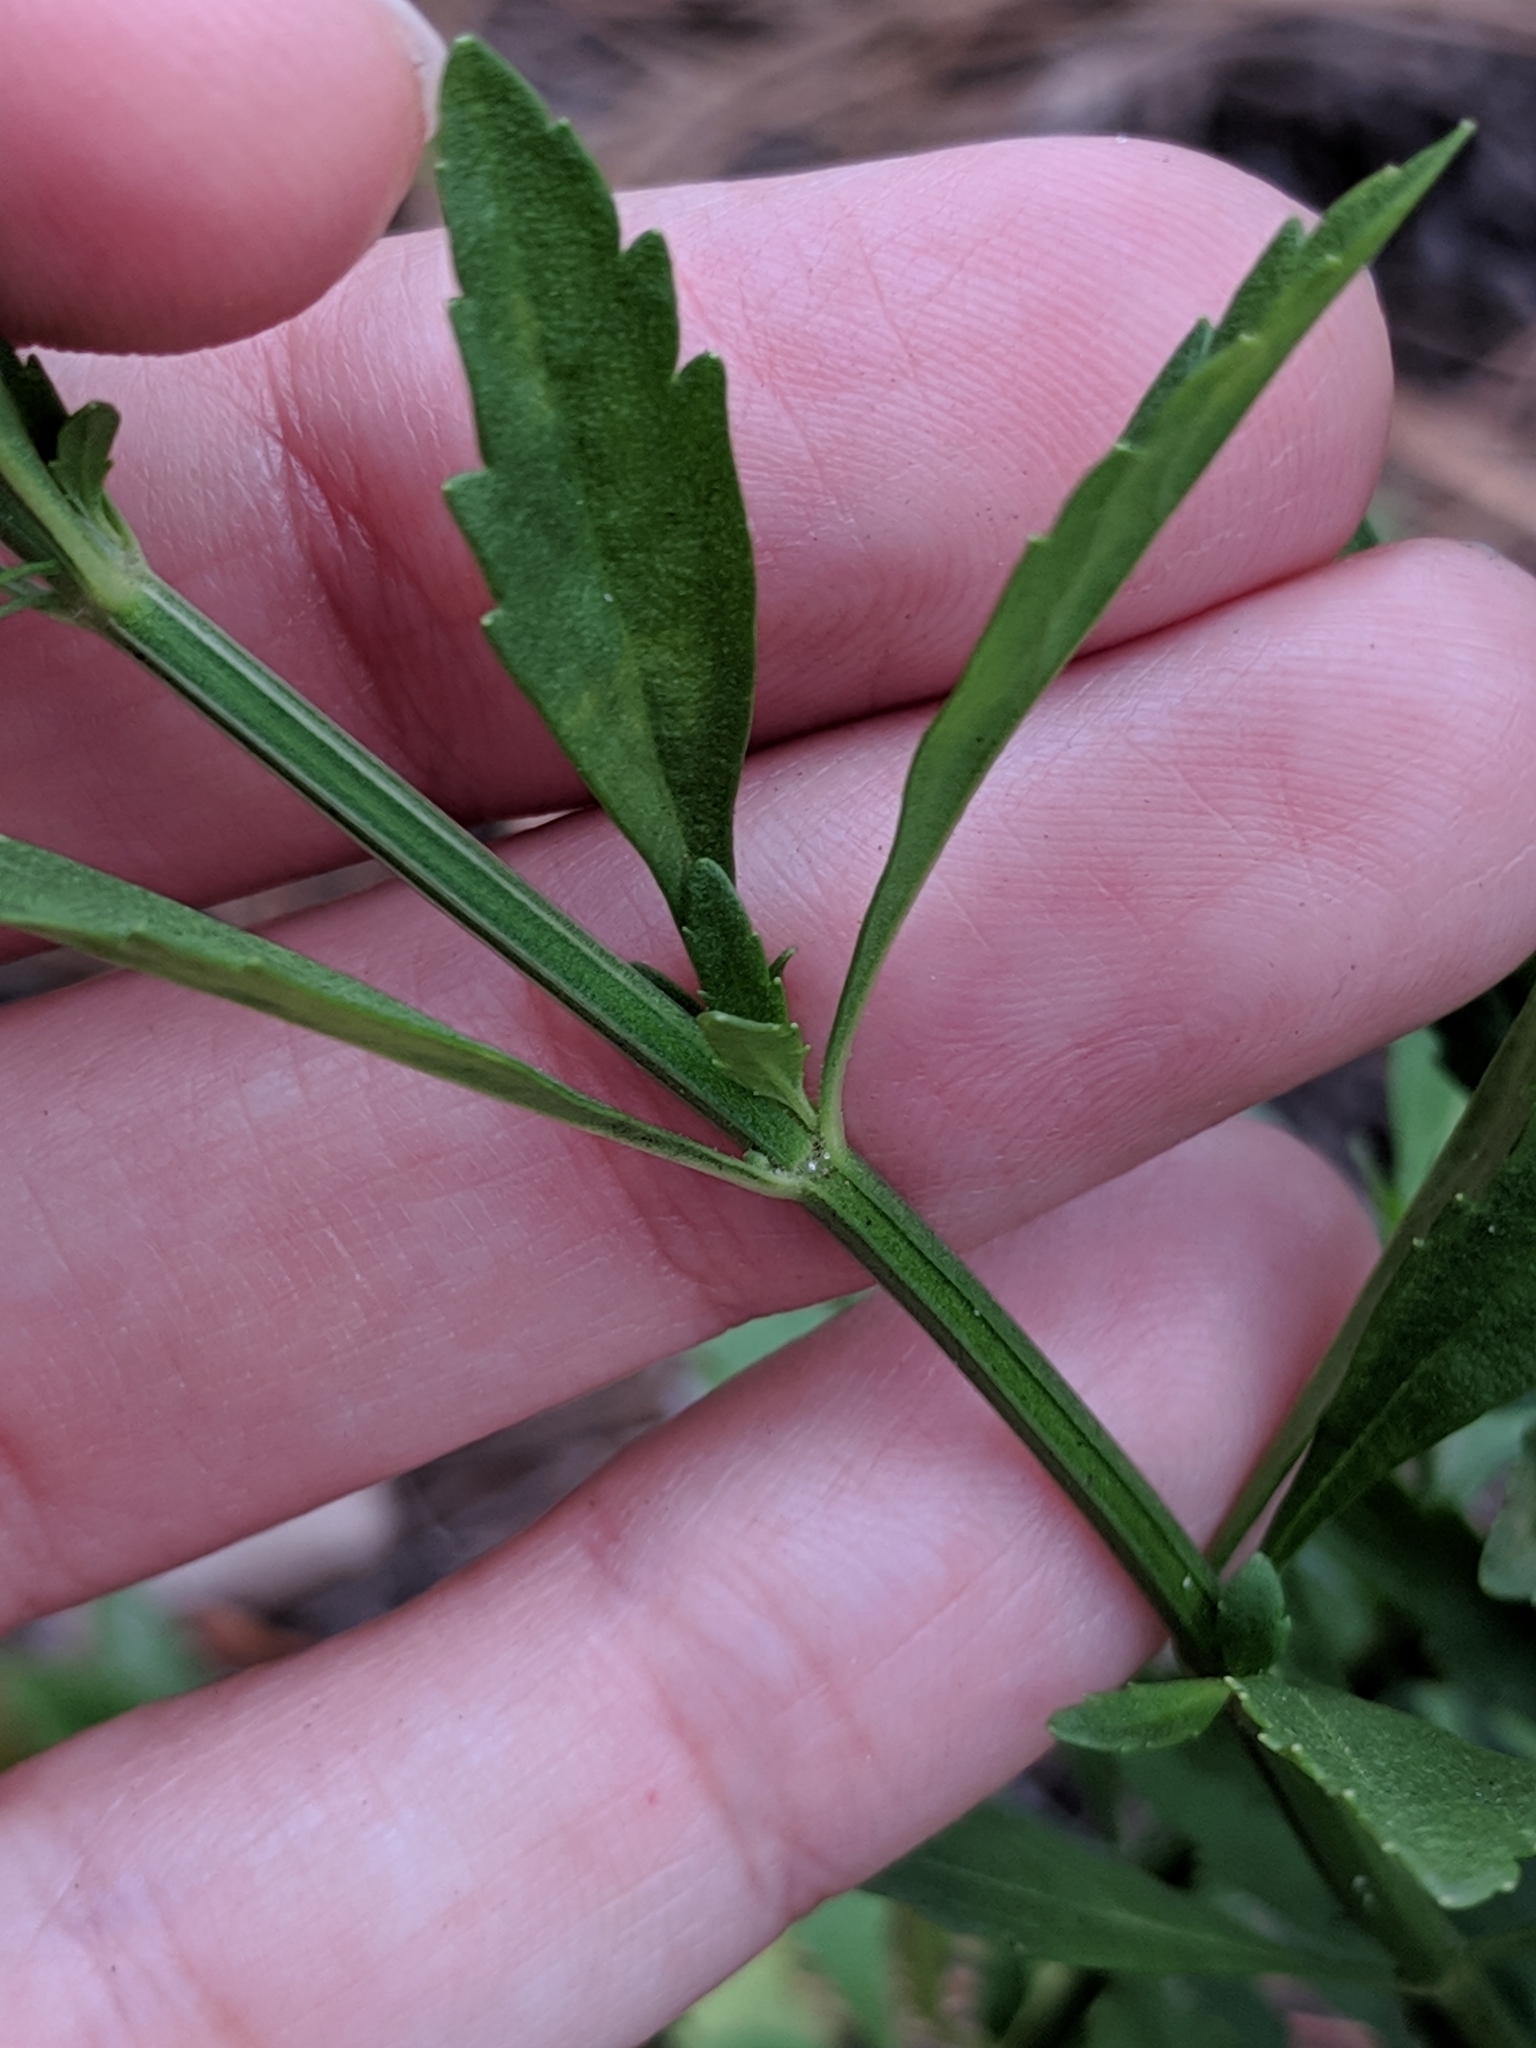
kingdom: Plantae
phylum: Tracheophyta
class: Magnoliopsida
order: Lamiales
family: Plantaginaceae
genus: Scoparia
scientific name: Scoparia dulcis
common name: Scoparia-weed
